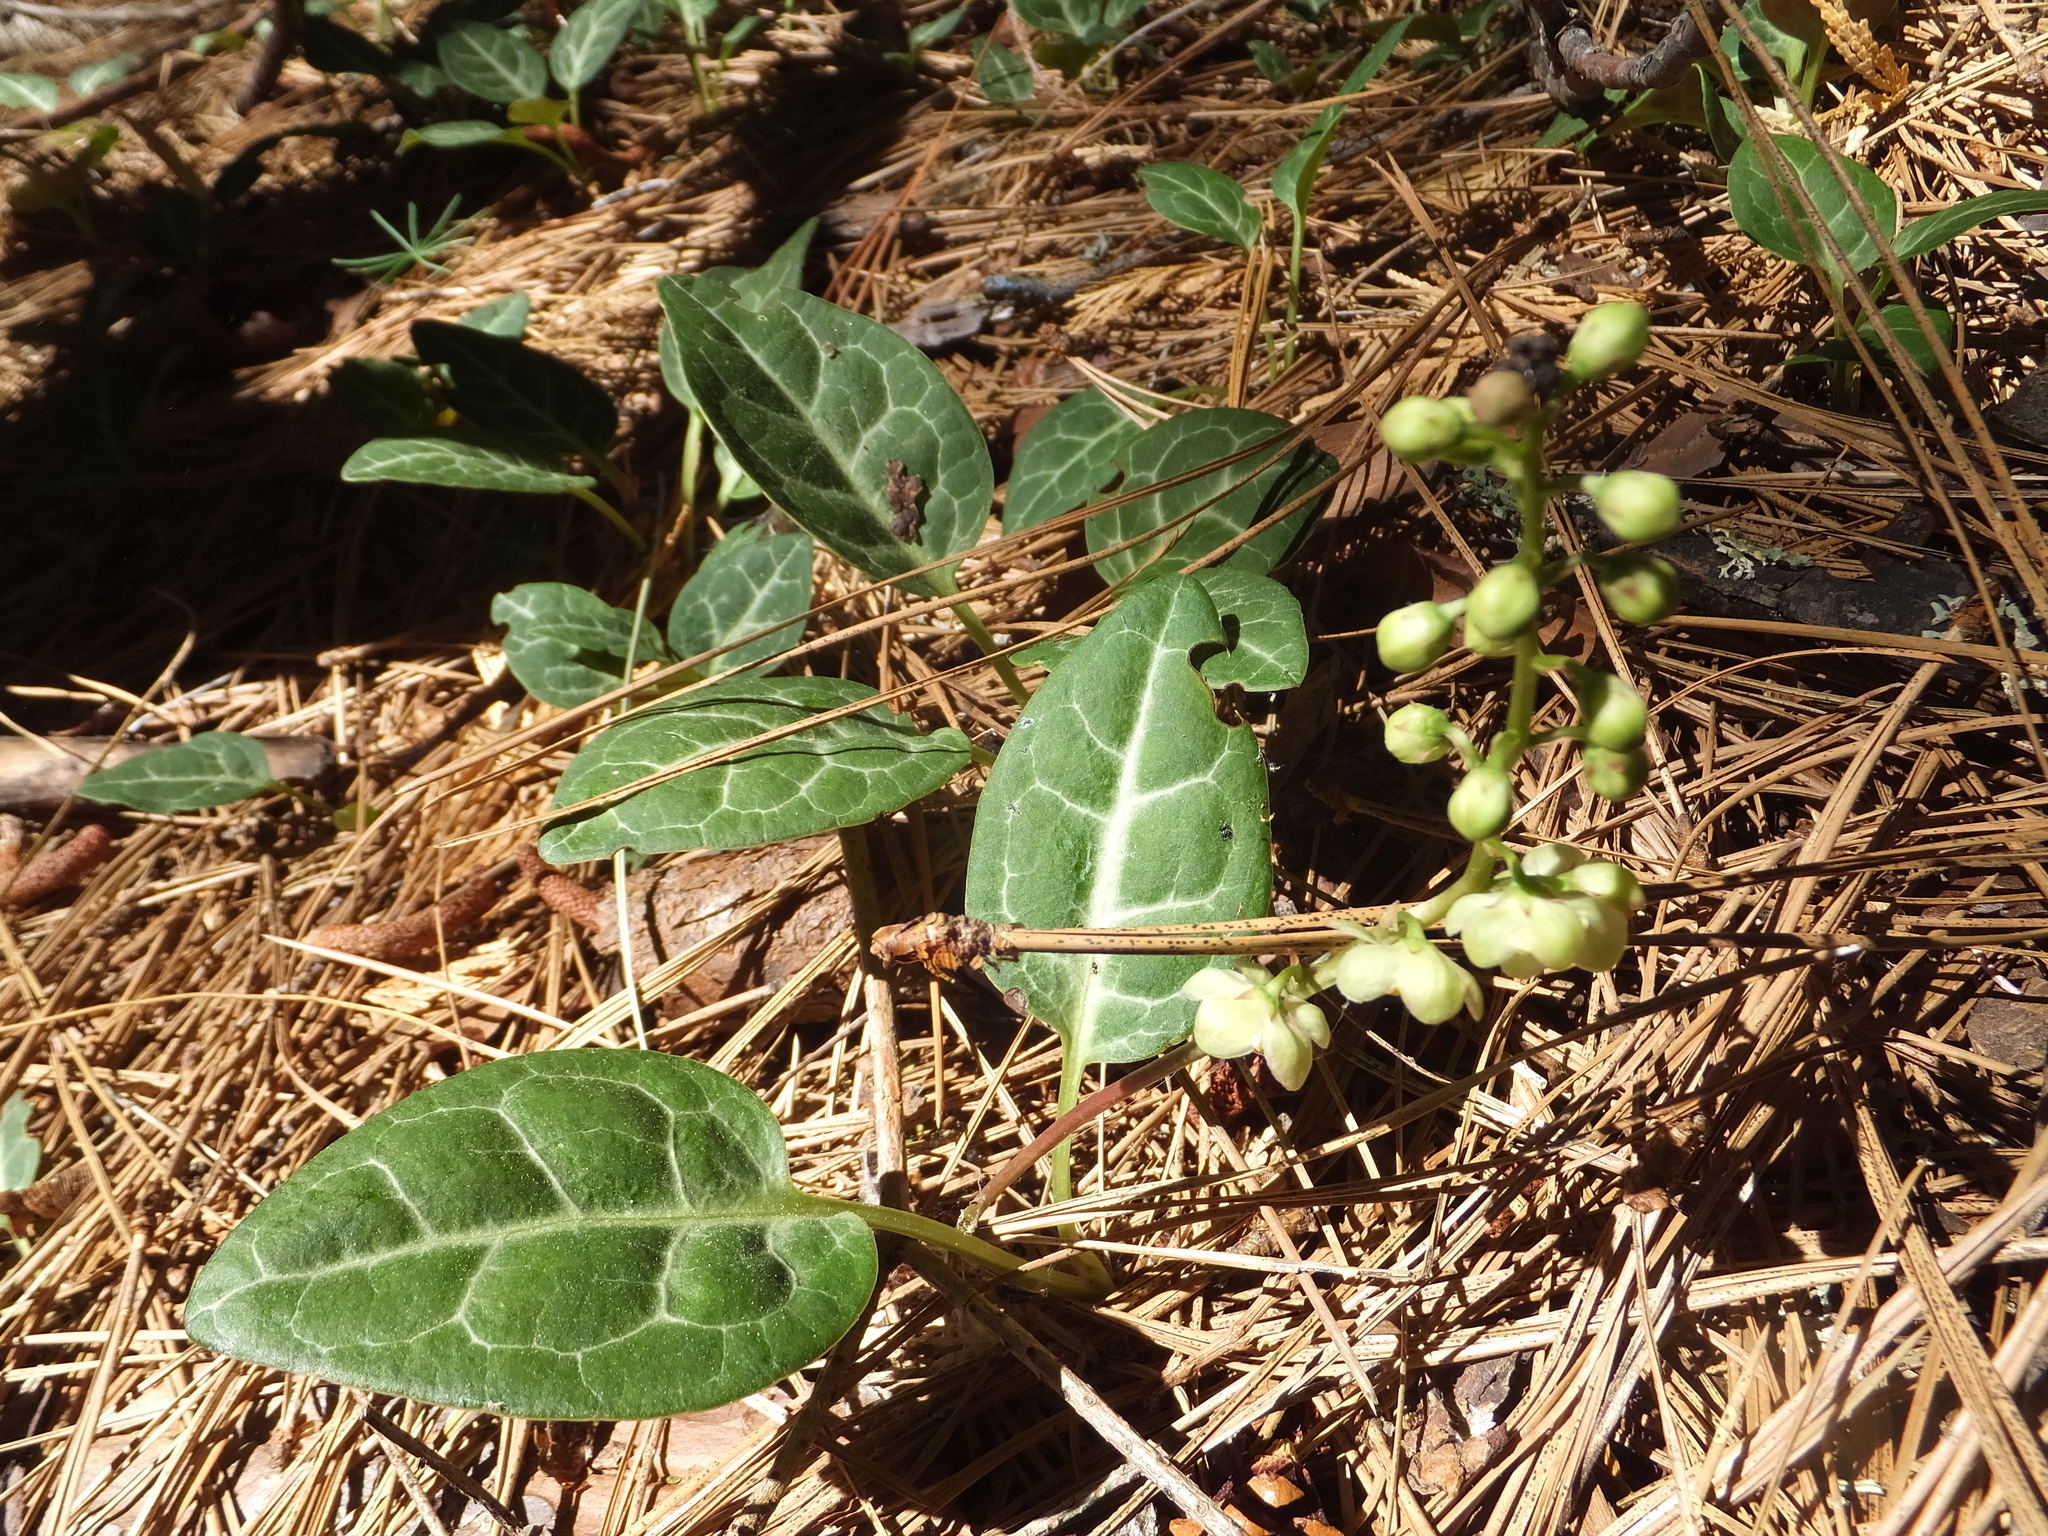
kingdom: Plantae
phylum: Tracheophyta
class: Magnoliopsida
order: Ericales
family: Ericaceae
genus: Pyrola
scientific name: Pyrola picta
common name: White-vein wintergreen
